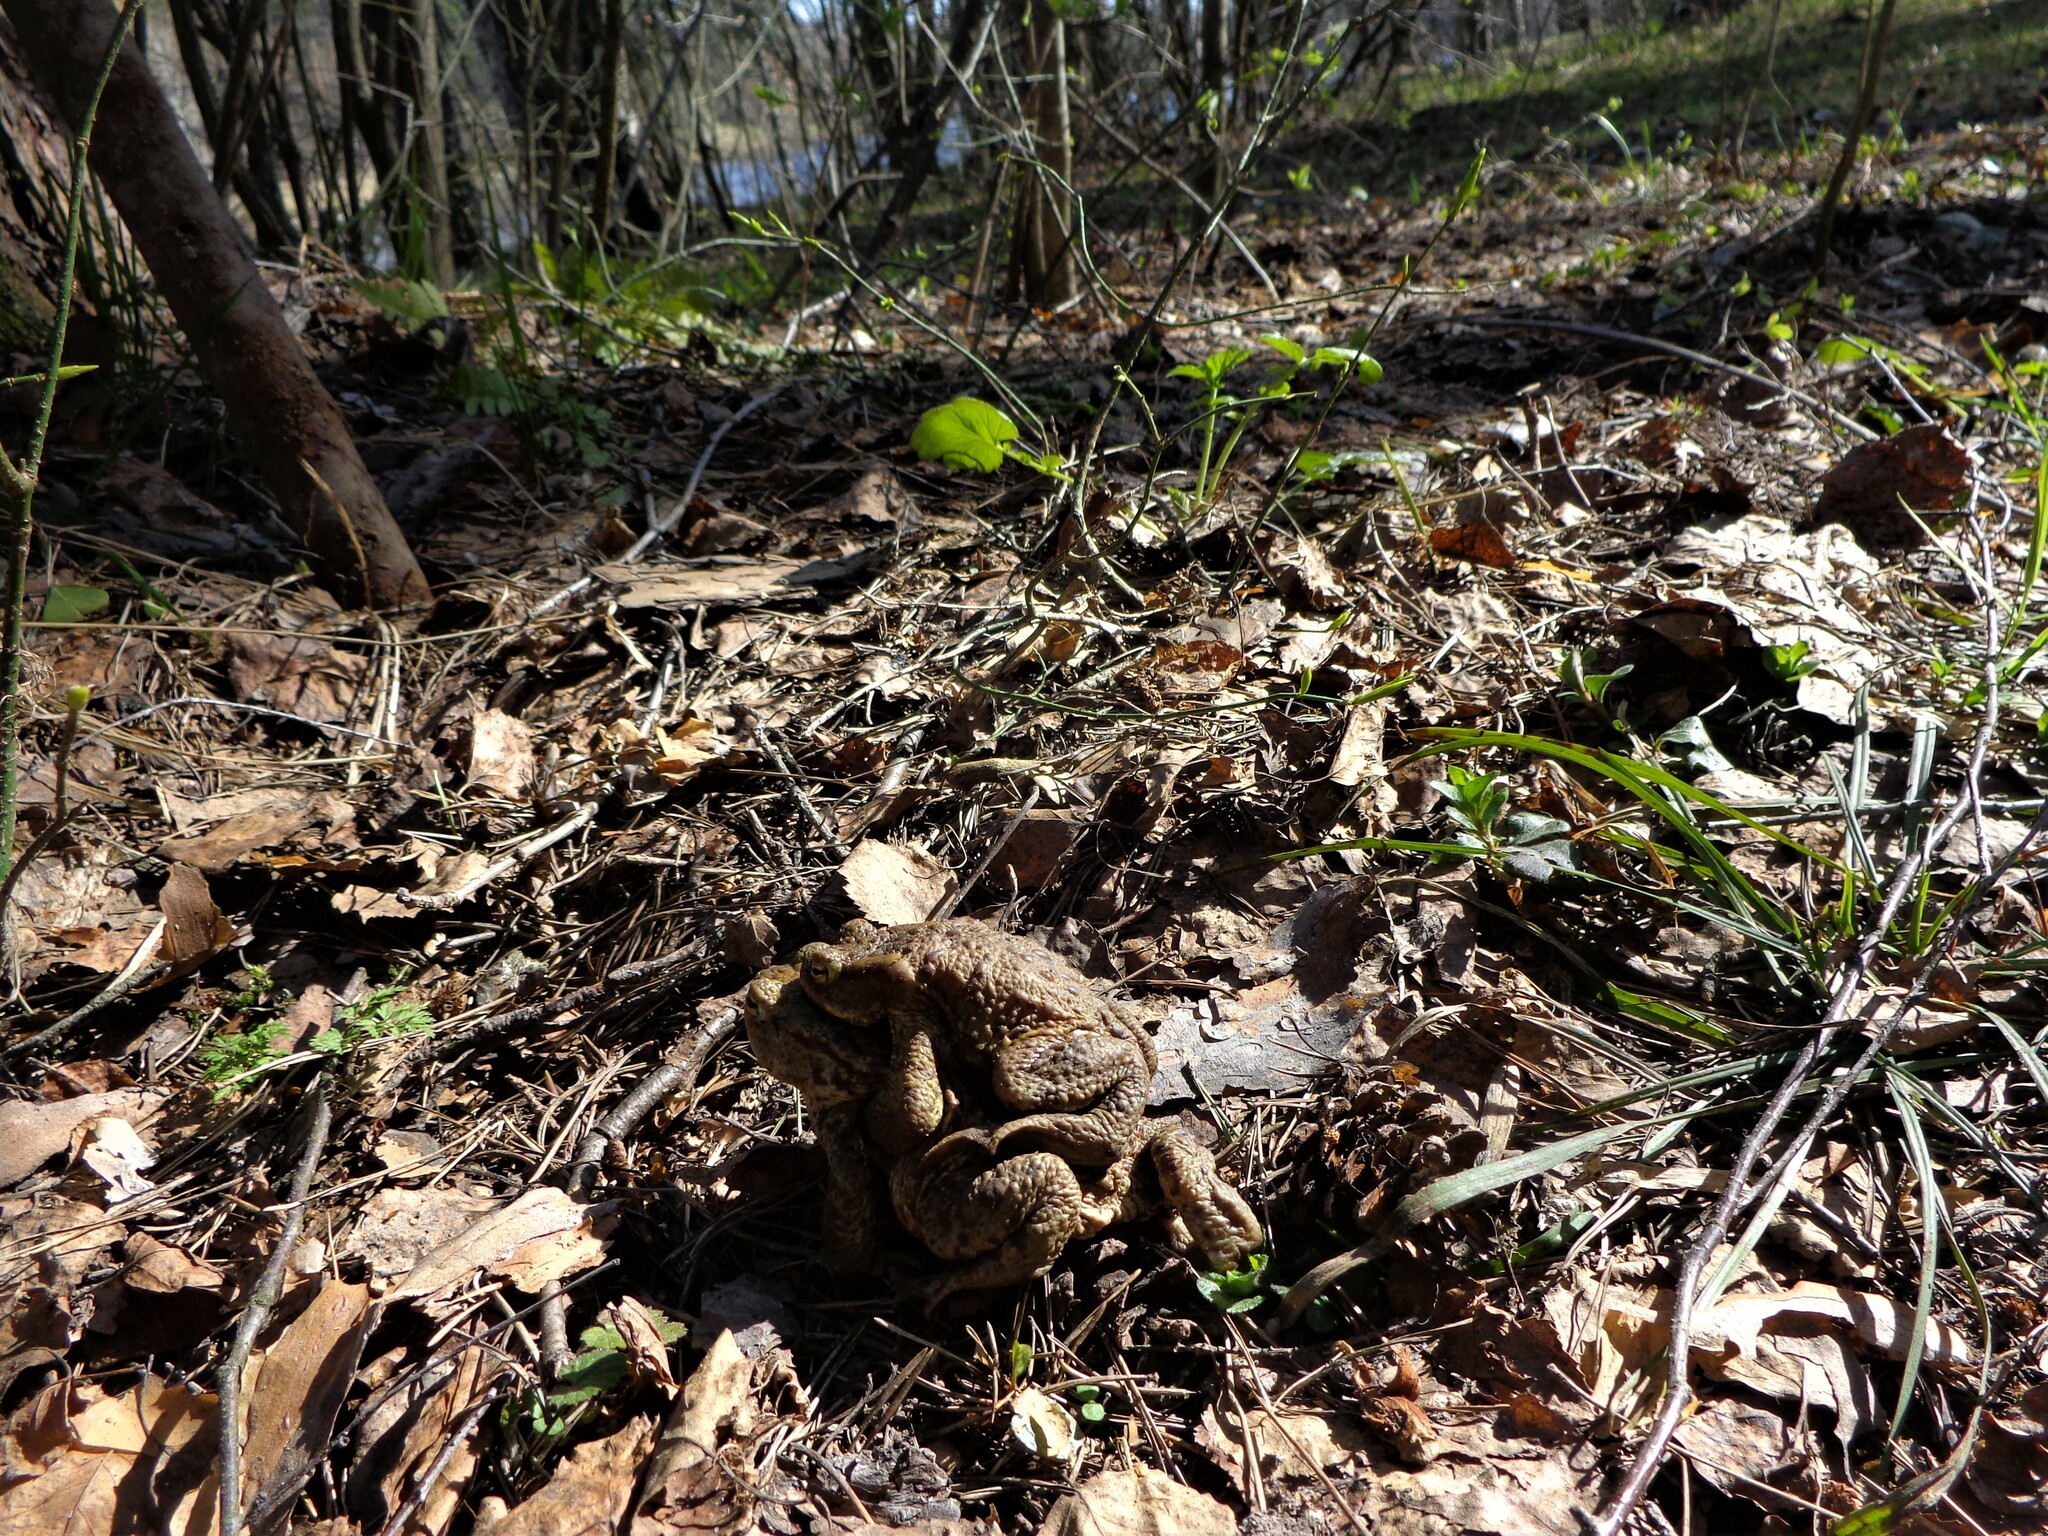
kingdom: Animalia
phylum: Chordata
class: Amphibia
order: Anura
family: Bufonidae
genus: Bufo
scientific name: Bufo bufo
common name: Common toad
